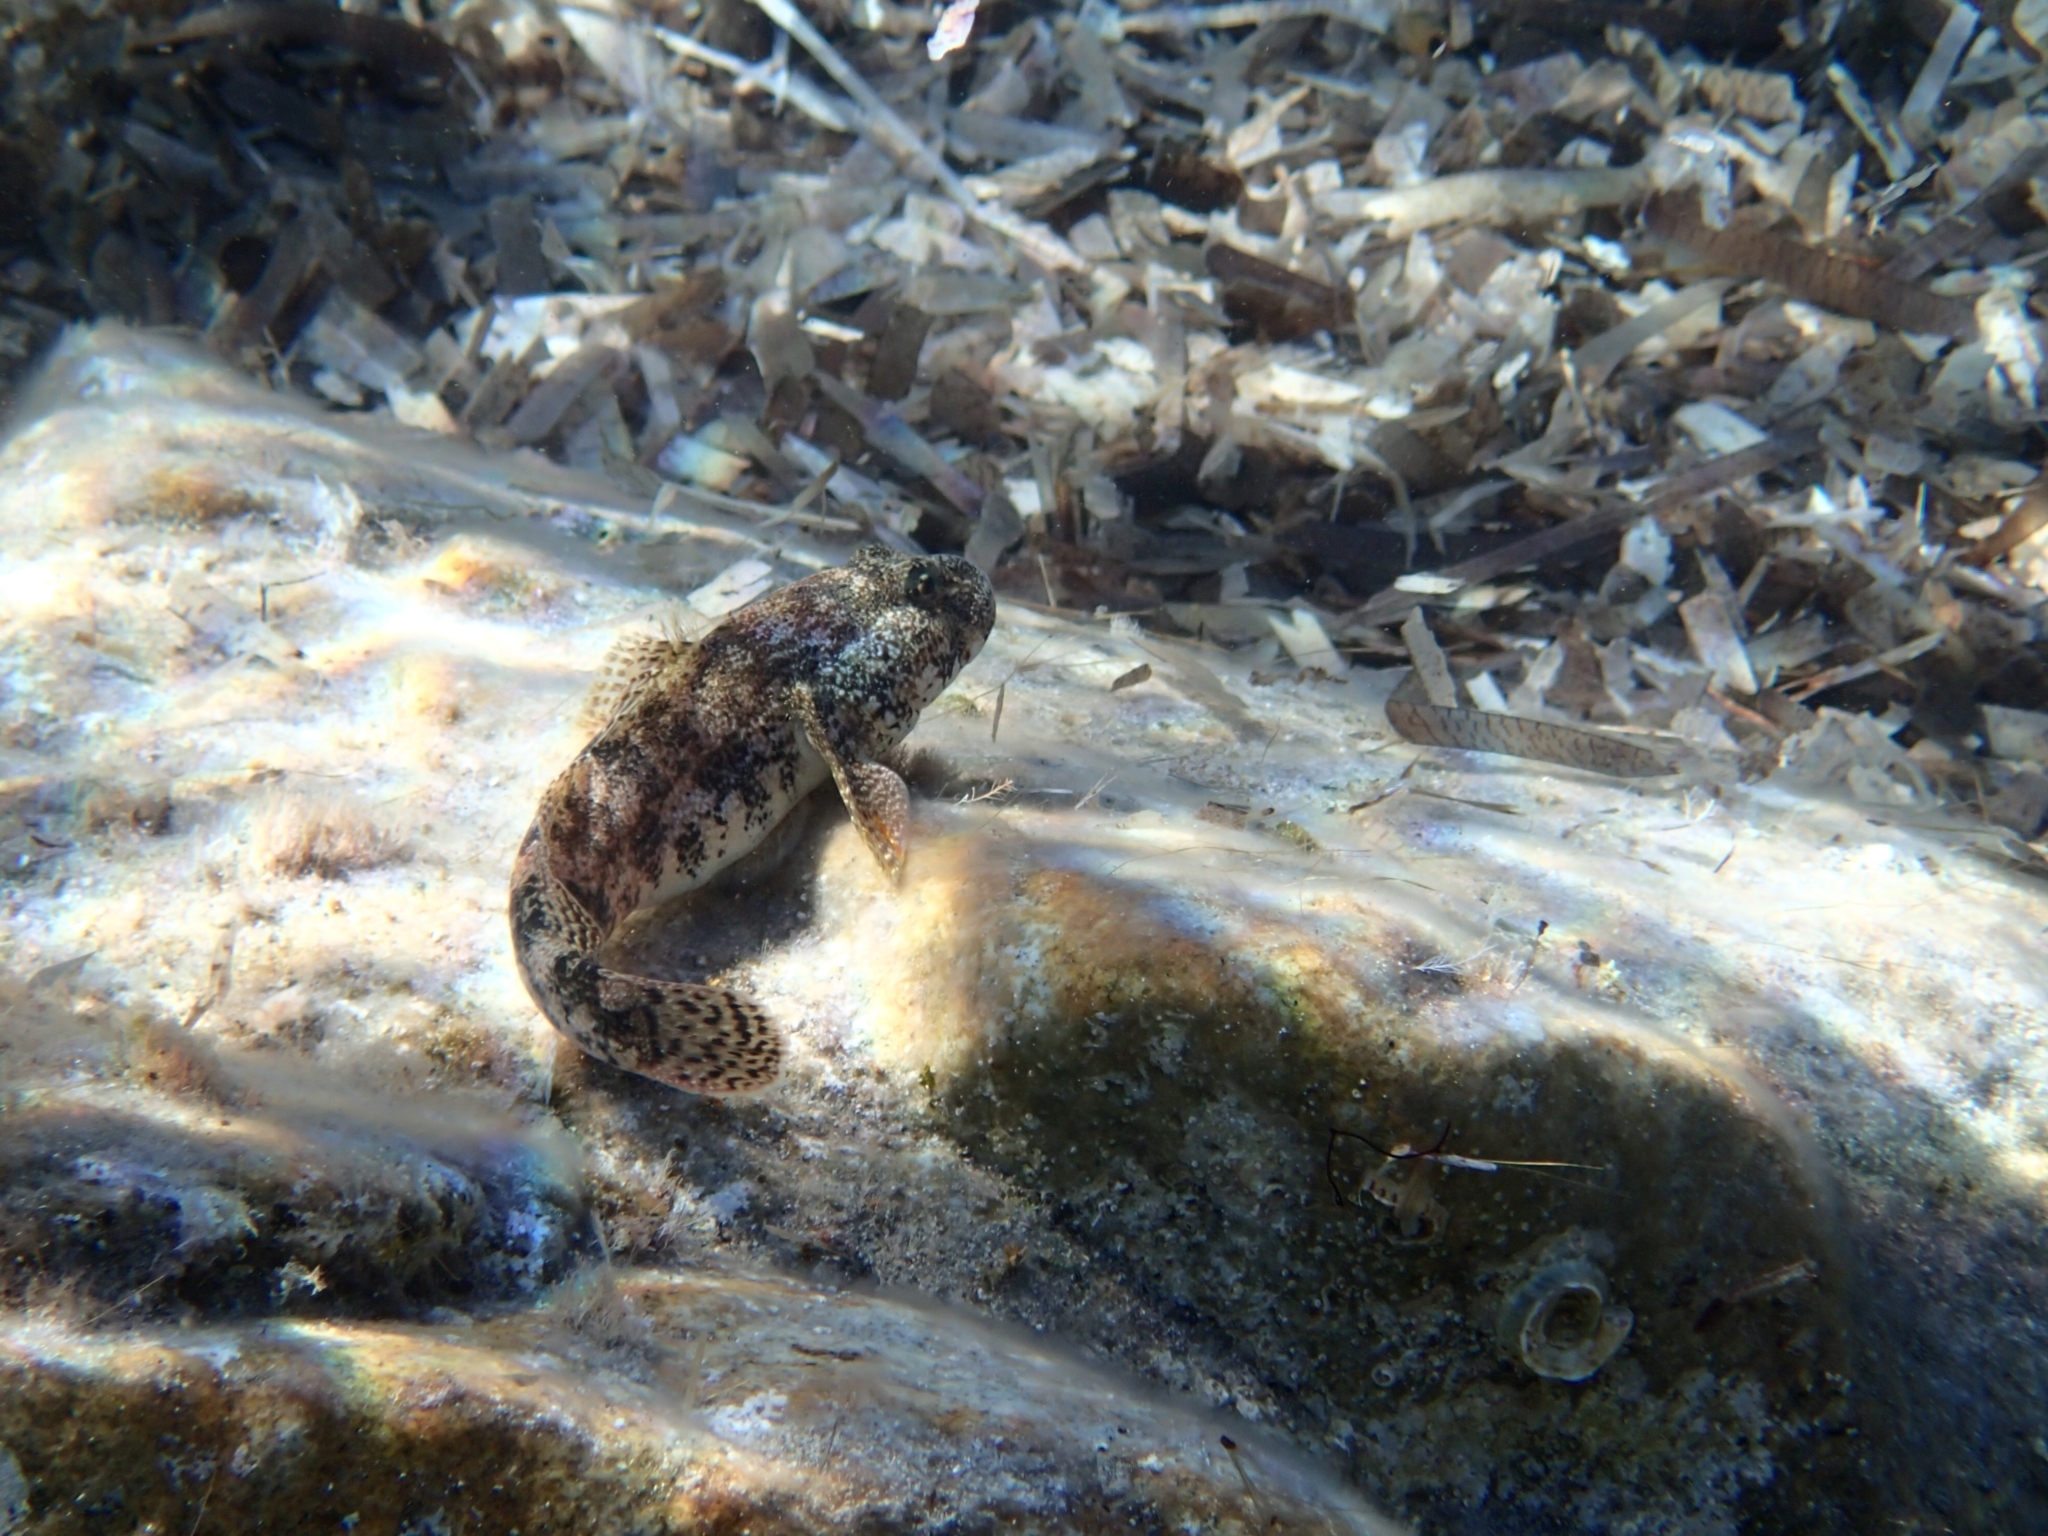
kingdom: Animalia
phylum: Chordata
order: Perciformes
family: Gobiidae
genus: Gobius
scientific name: Gobius cobitis
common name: Giant goby
